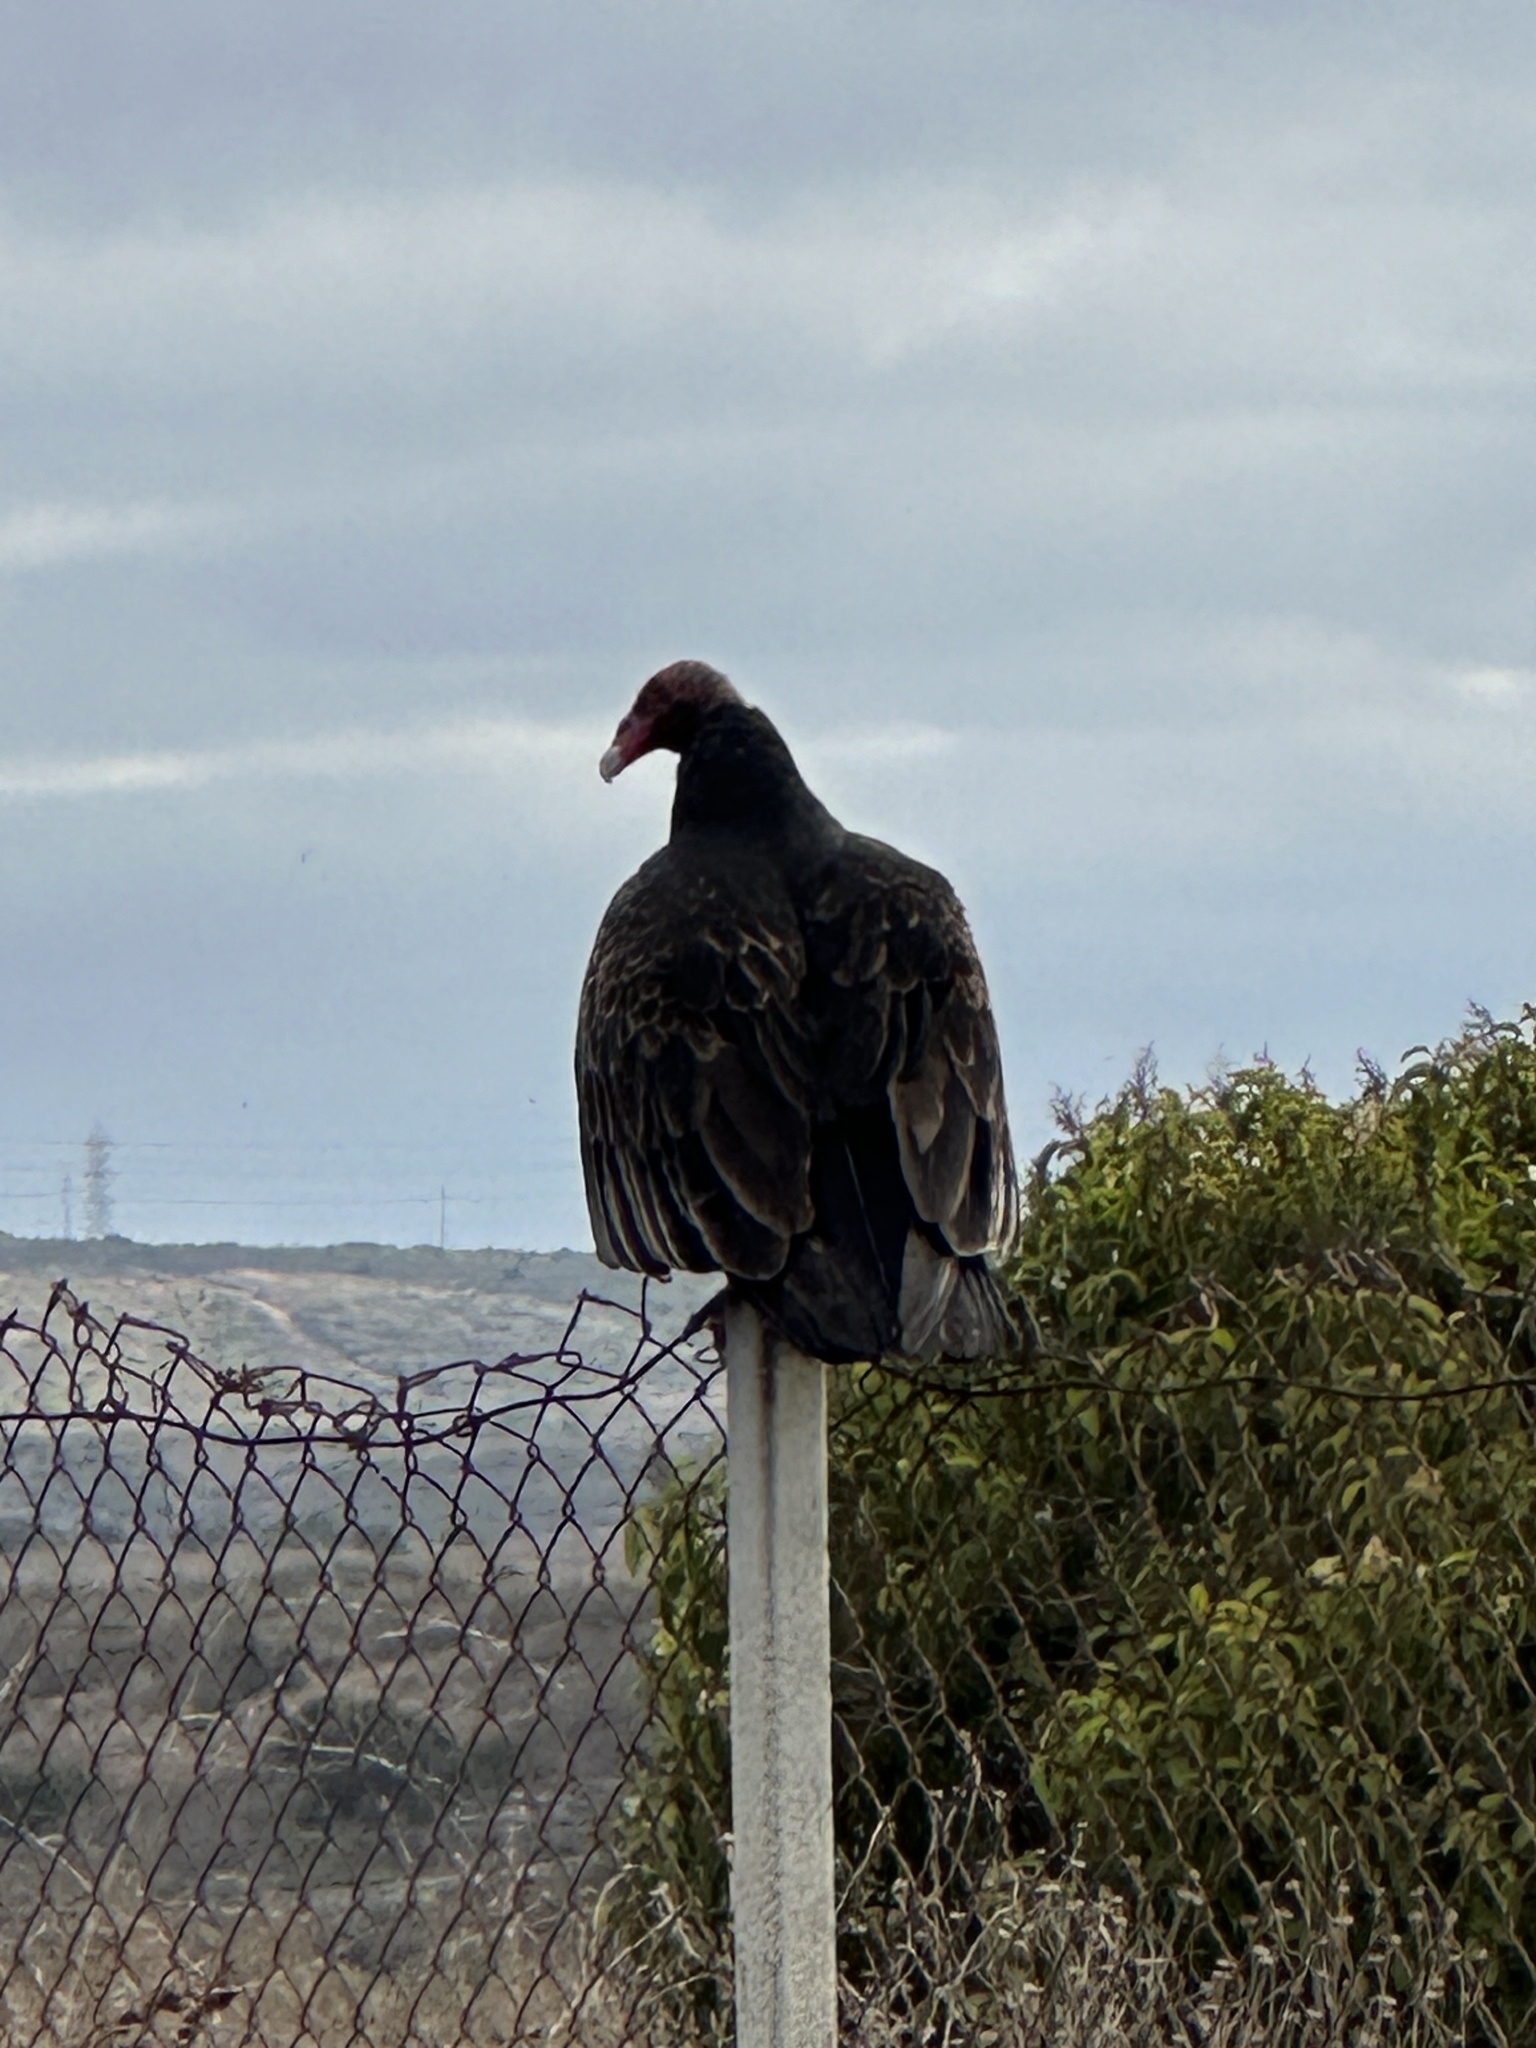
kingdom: Animalia
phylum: Chordata
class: Aves
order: Accipitriformes
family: Cathartidae
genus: Cathartes
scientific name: Cathartes aura
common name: Turkey vulture
